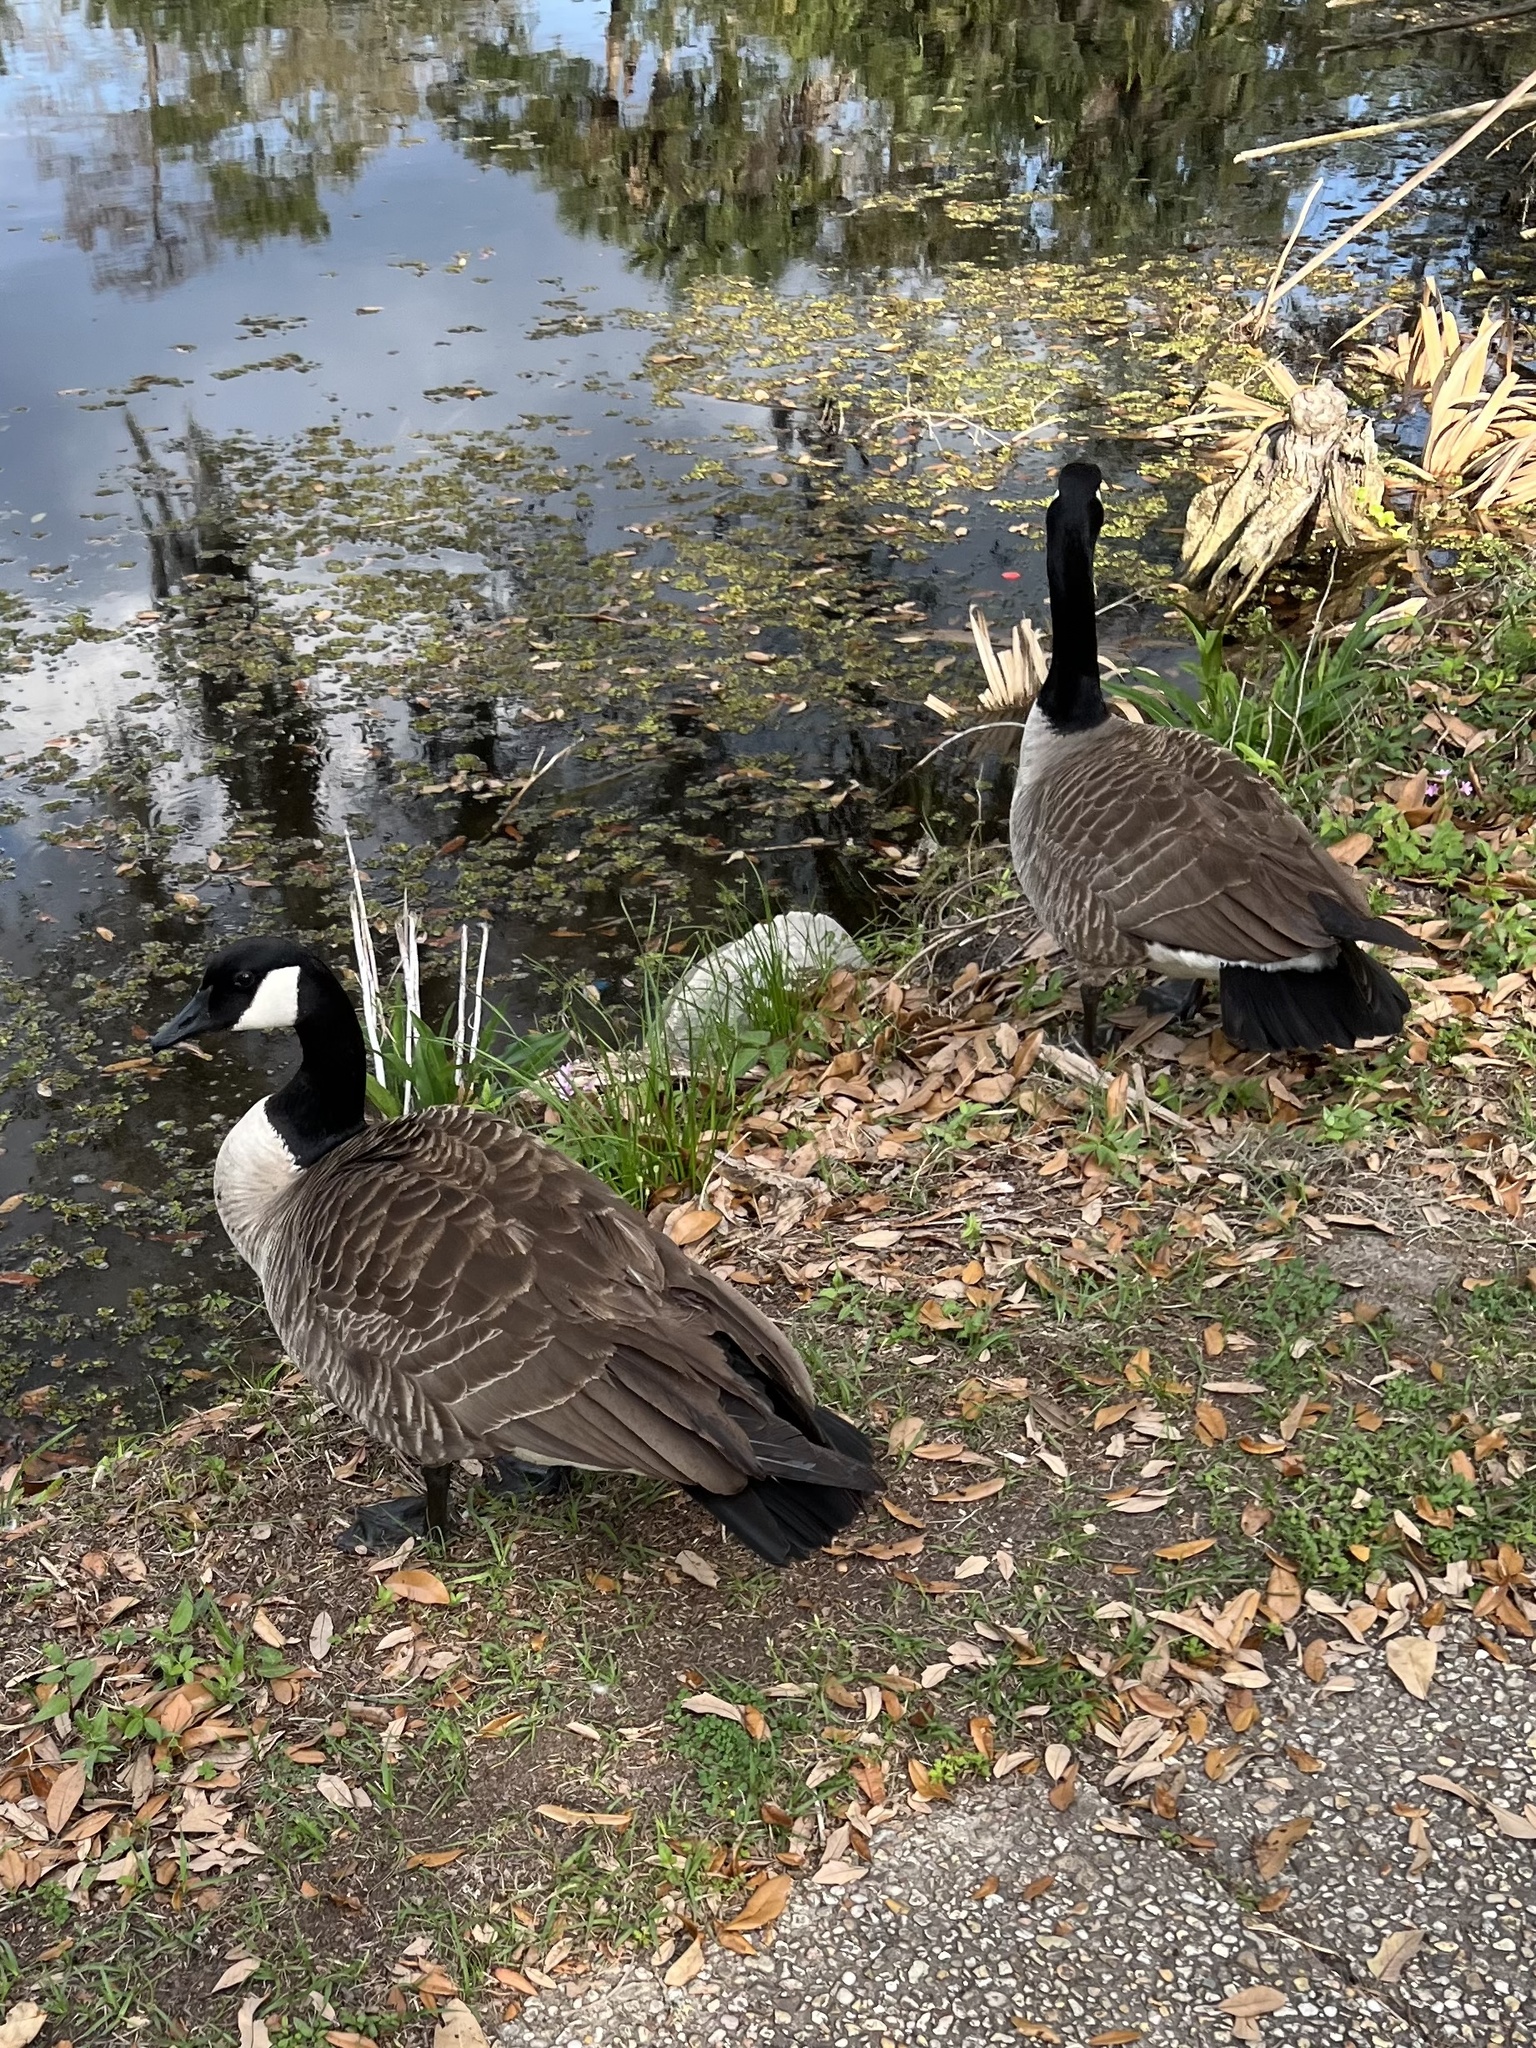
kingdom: Animalia
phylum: Chordata
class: Aves
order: Anseriformes
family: Anatidae
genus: Branta
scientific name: Branta canadensis
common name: Canada goose
